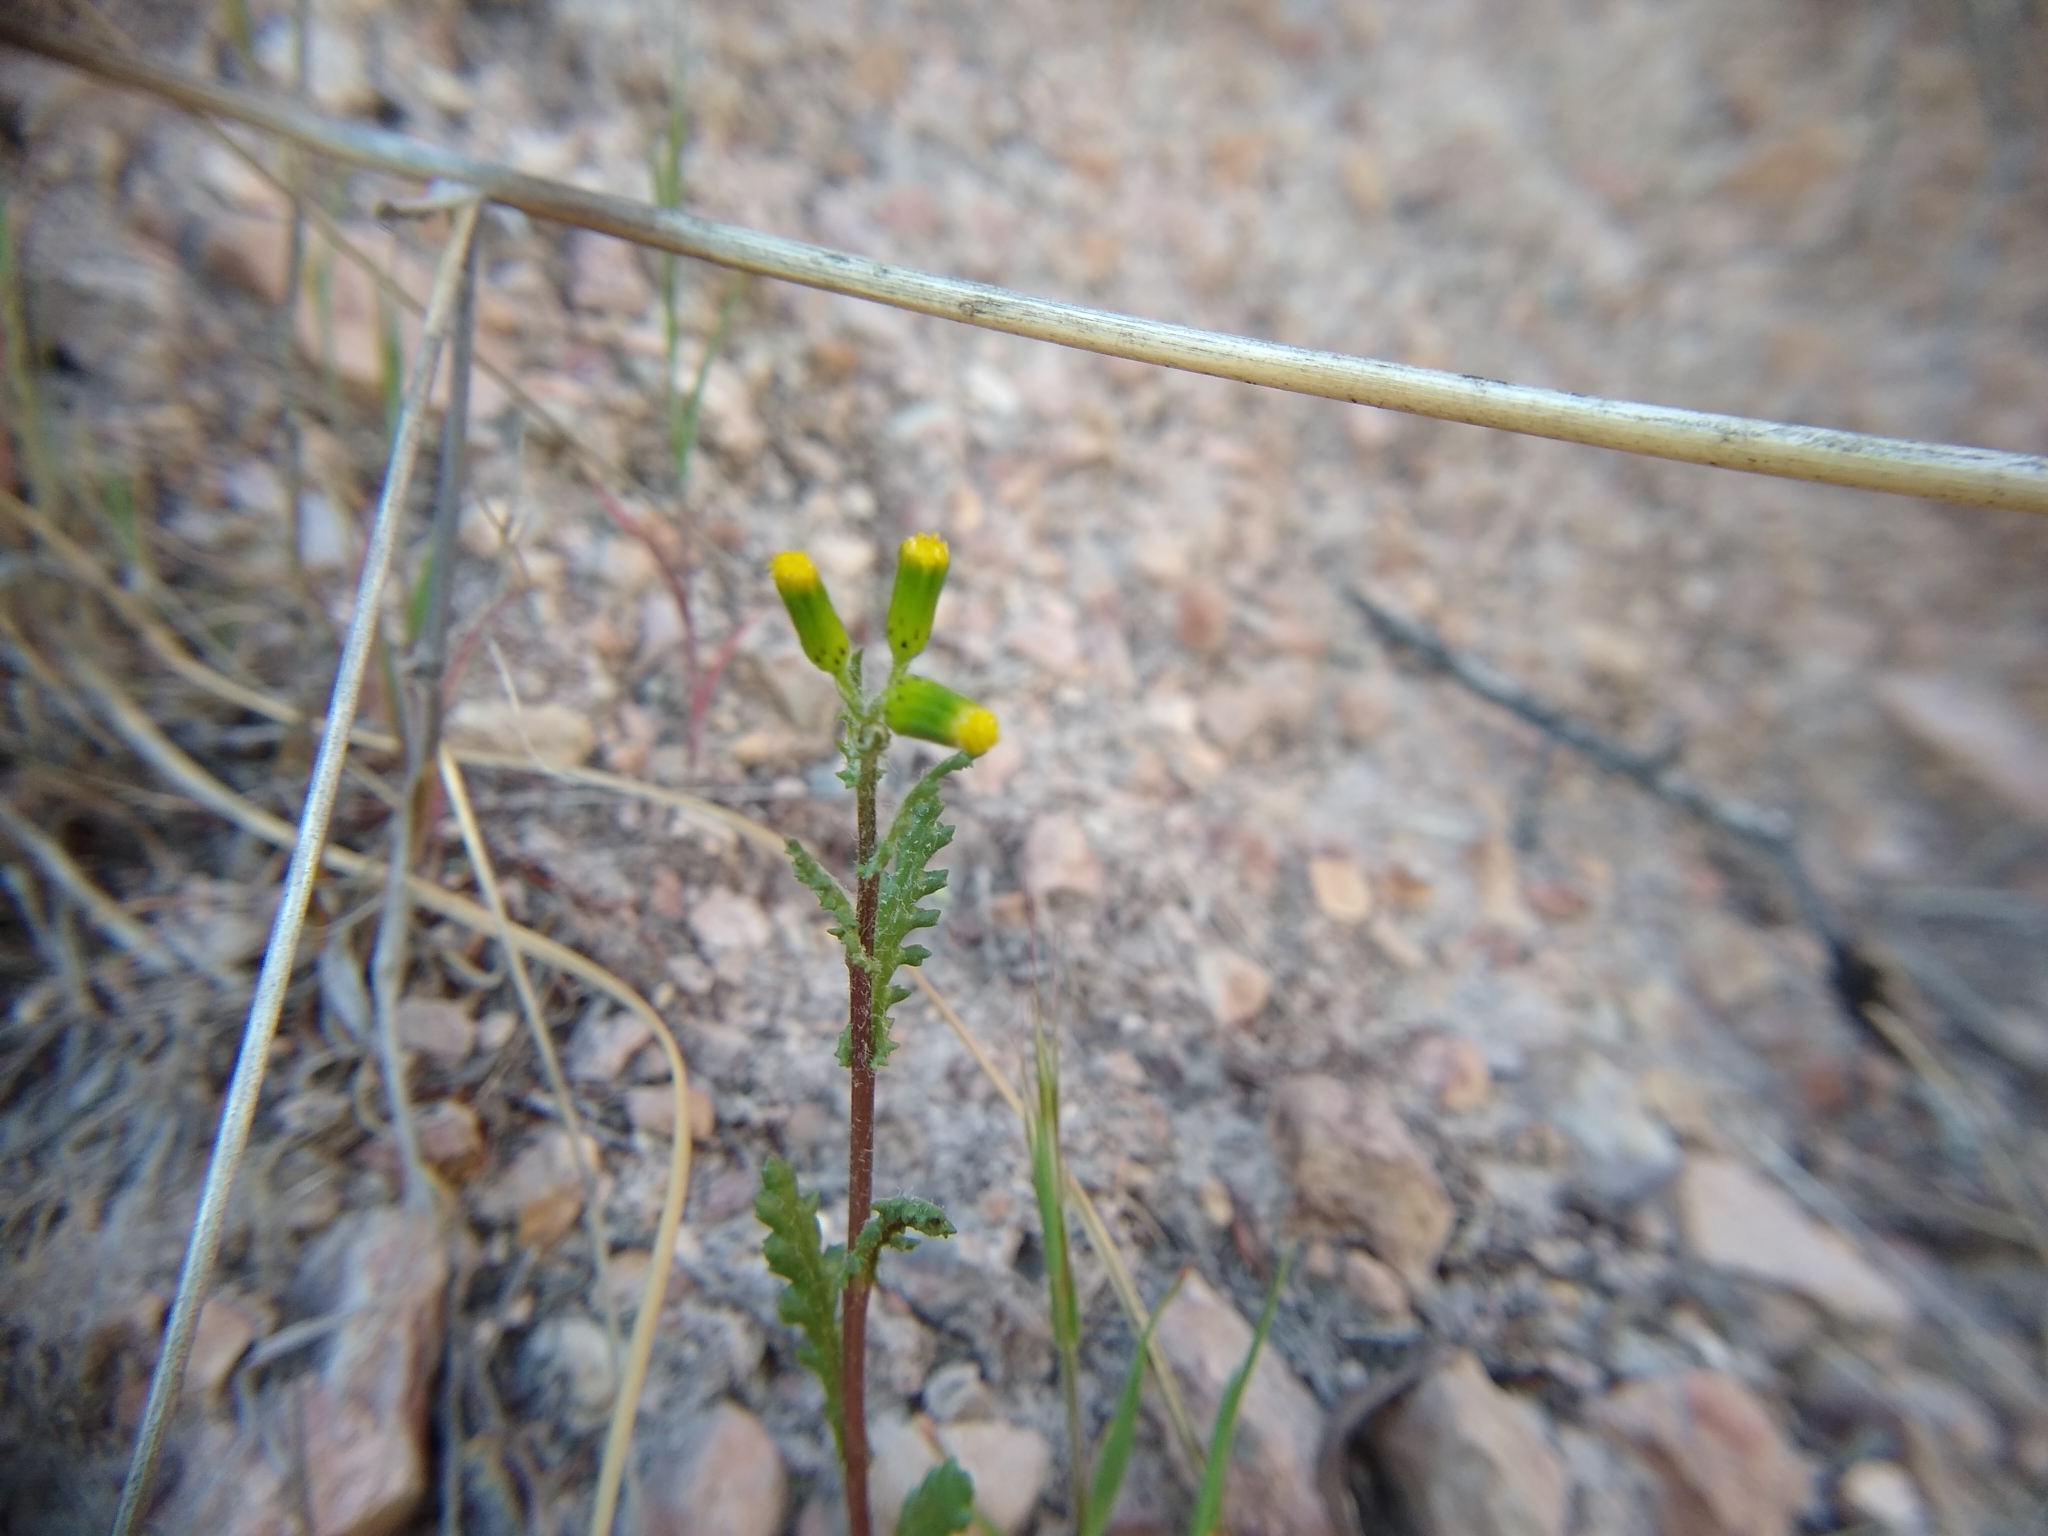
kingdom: Plantae
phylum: Tracheophyta
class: Magnoliopsida
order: Asterales
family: Asteraceae
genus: Senecio
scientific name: Senecio vulgaris
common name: Old-man-in-the-spring
